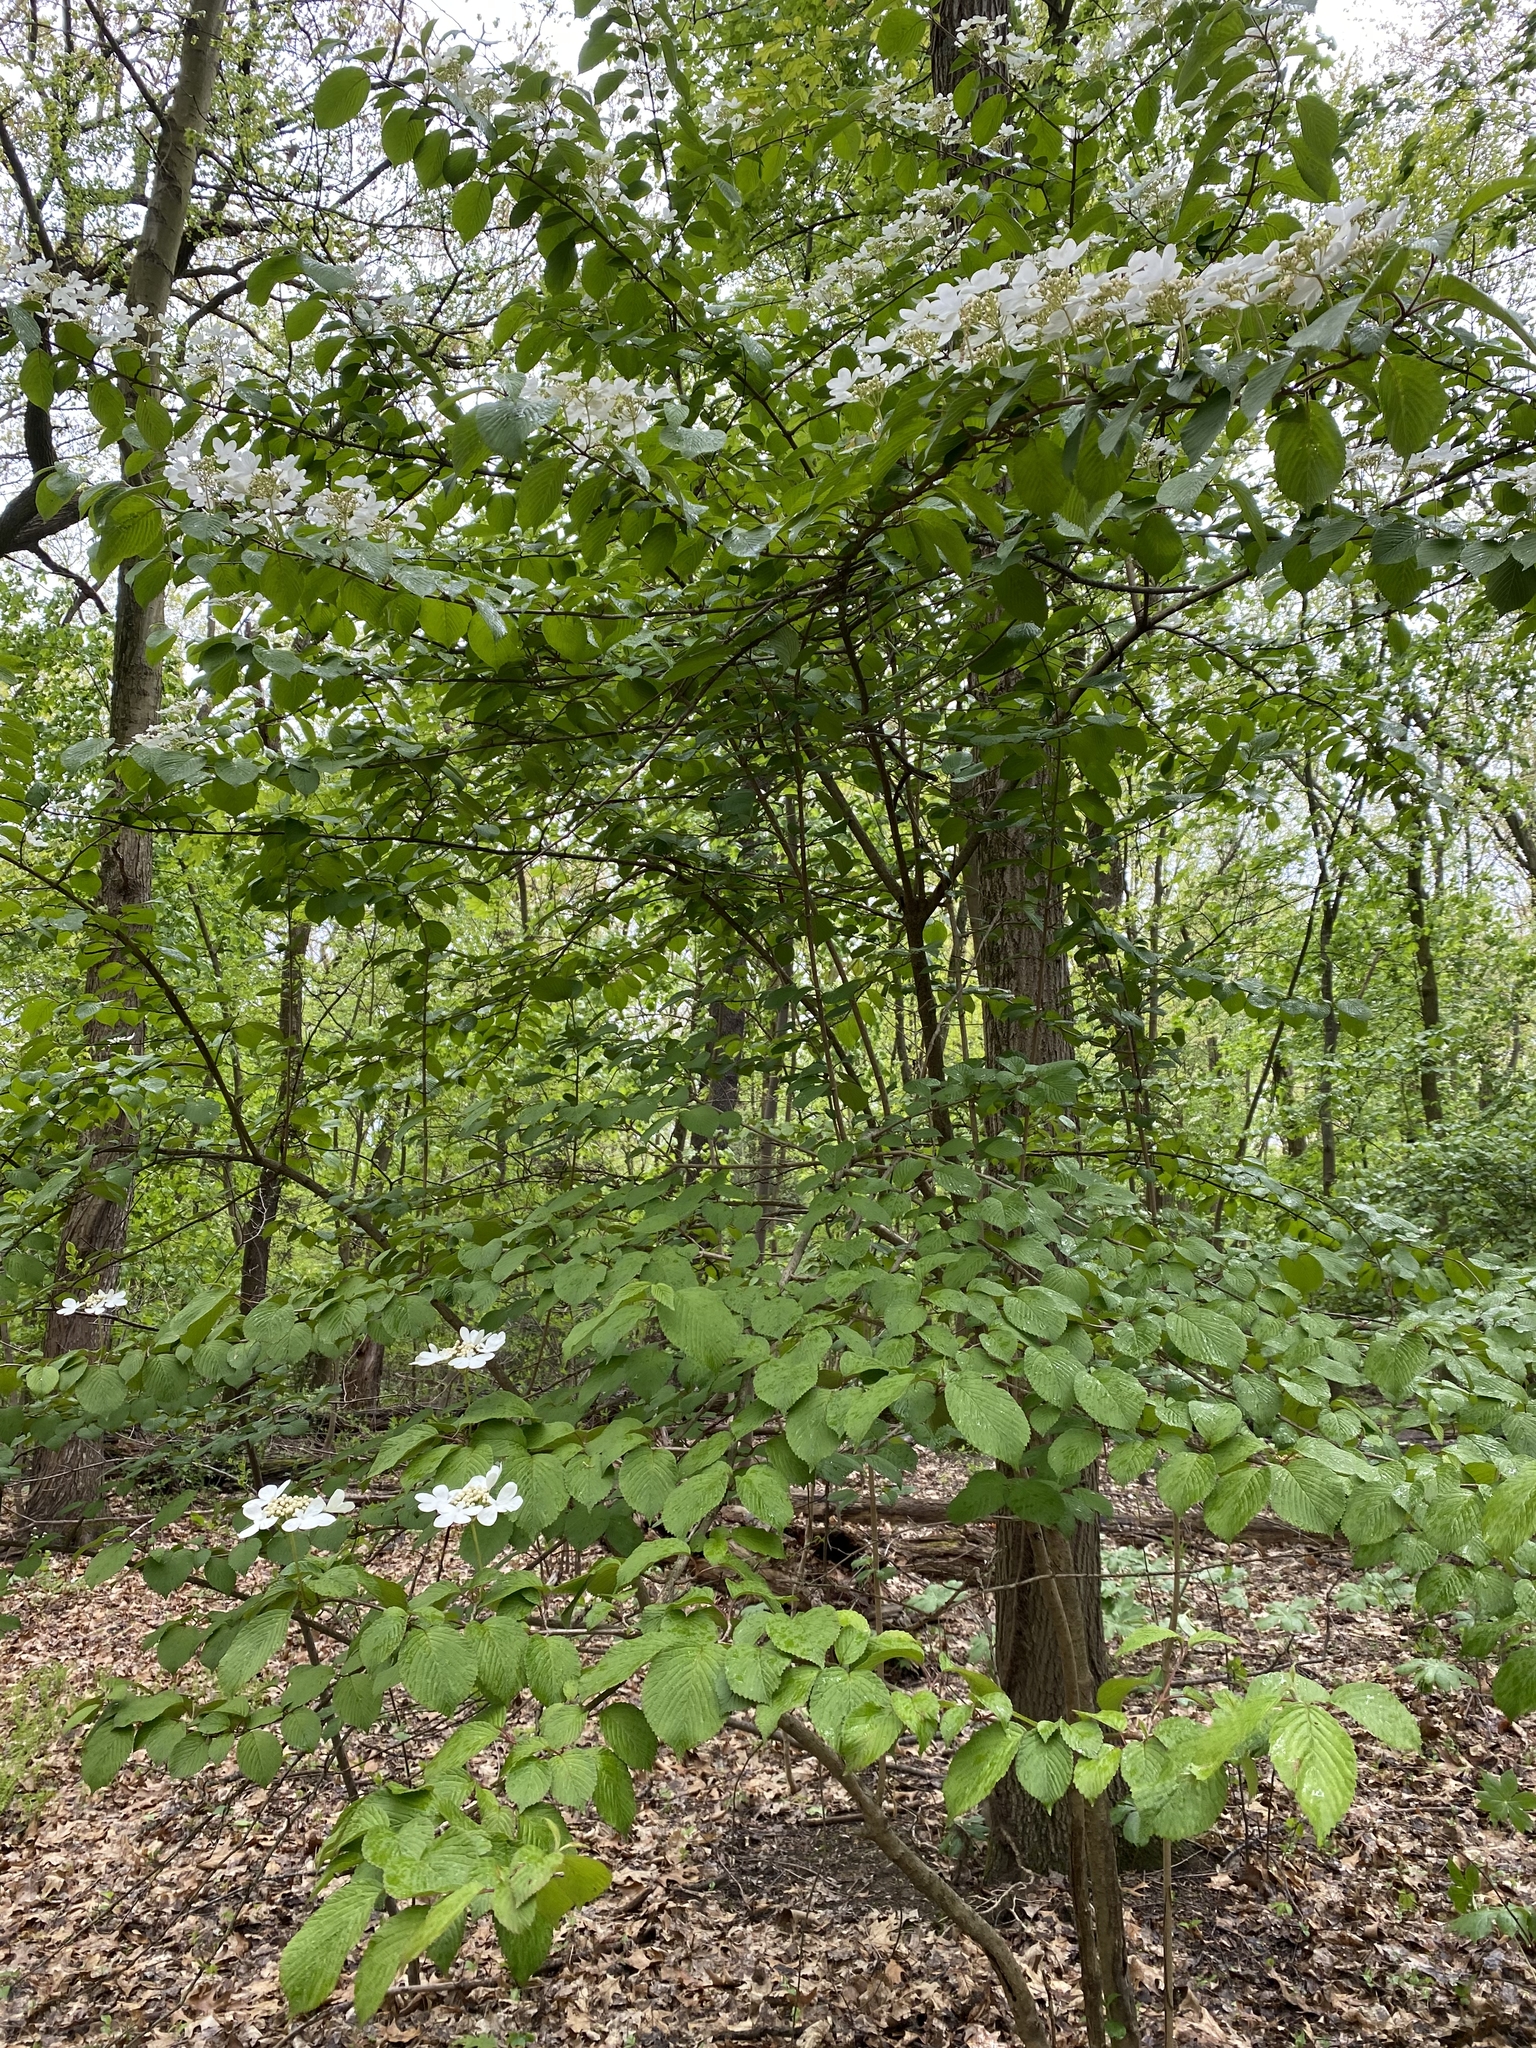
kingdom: Plantae
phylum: Tracheophyta
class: Magnoliopsida
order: Dipsacales
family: Viburnaceae
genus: Viburnum
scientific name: Viburnum plicatum
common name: Japanese snowball
